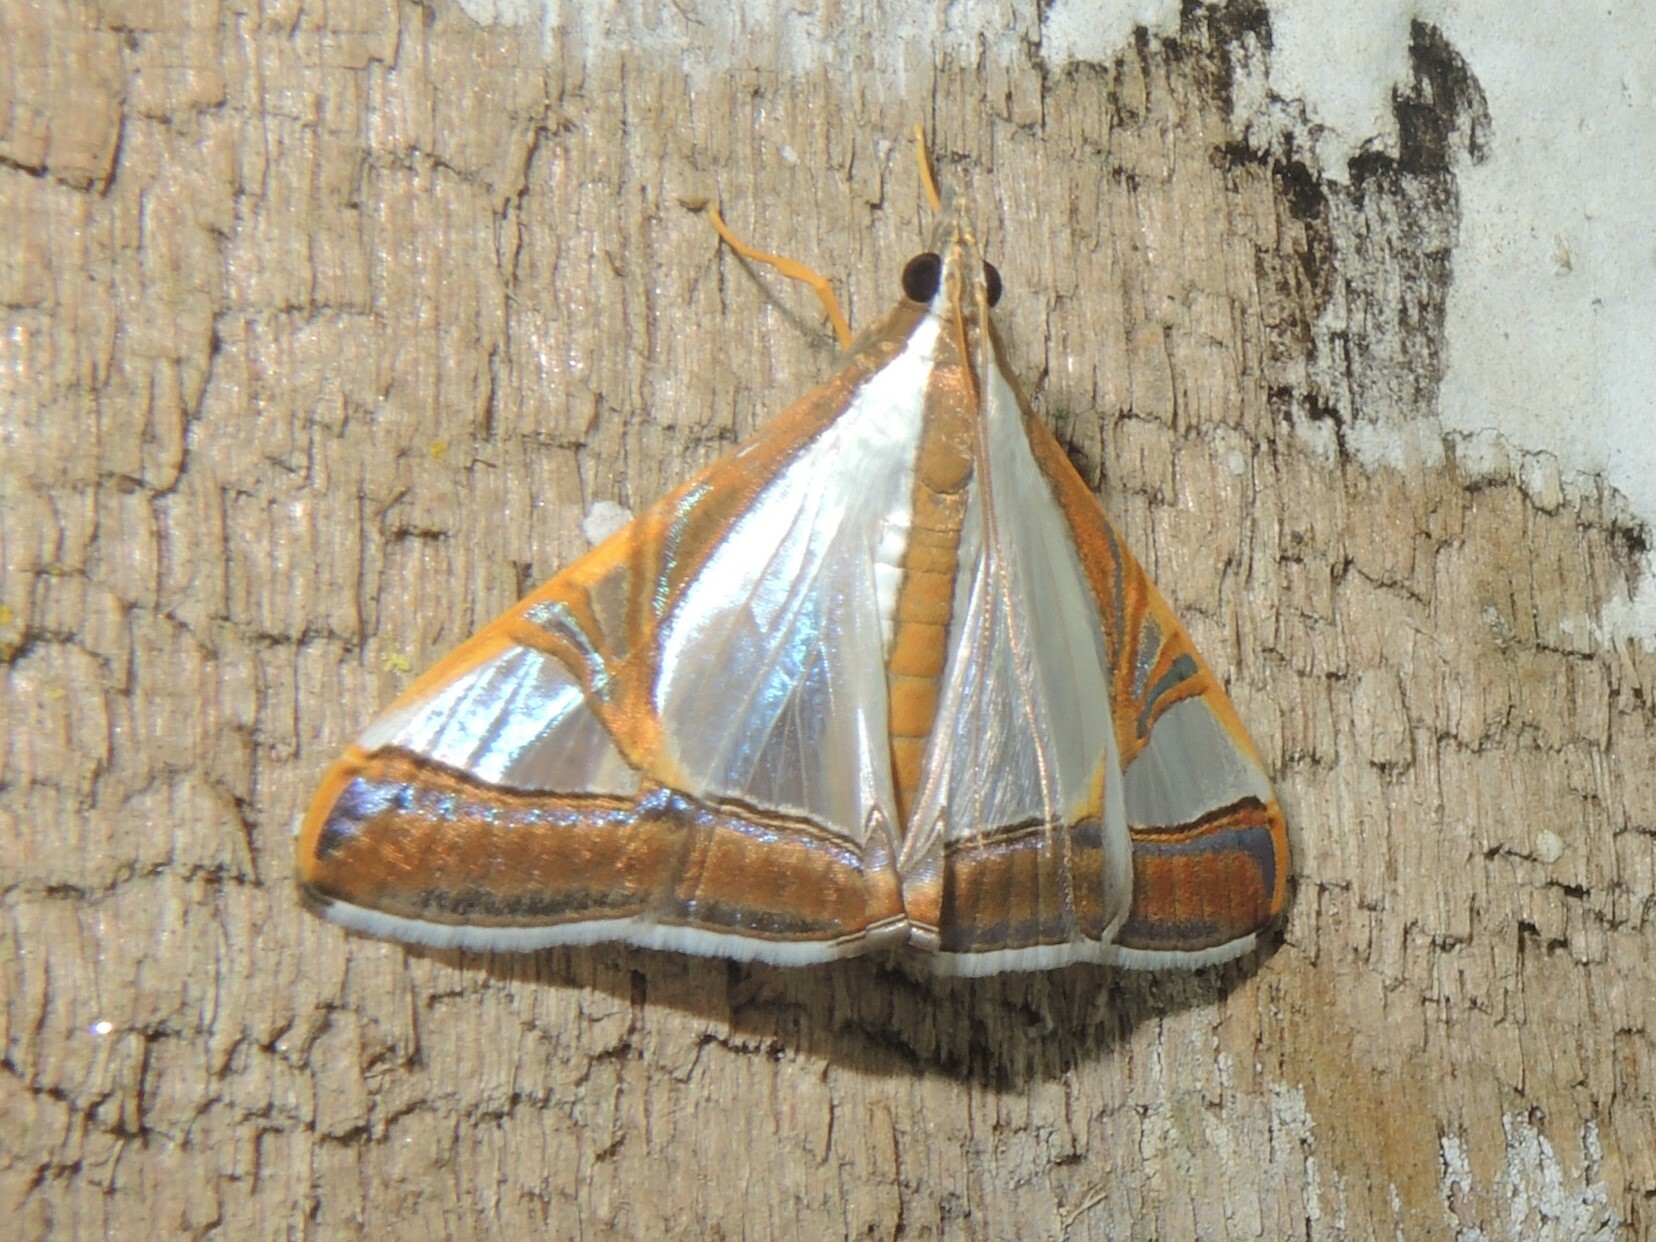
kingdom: Animalia
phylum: Arthropoda
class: Insecta
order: Lepidoptera
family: Crambidae
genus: Agrioglypta
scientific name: Agrioglypta eurytusalis
